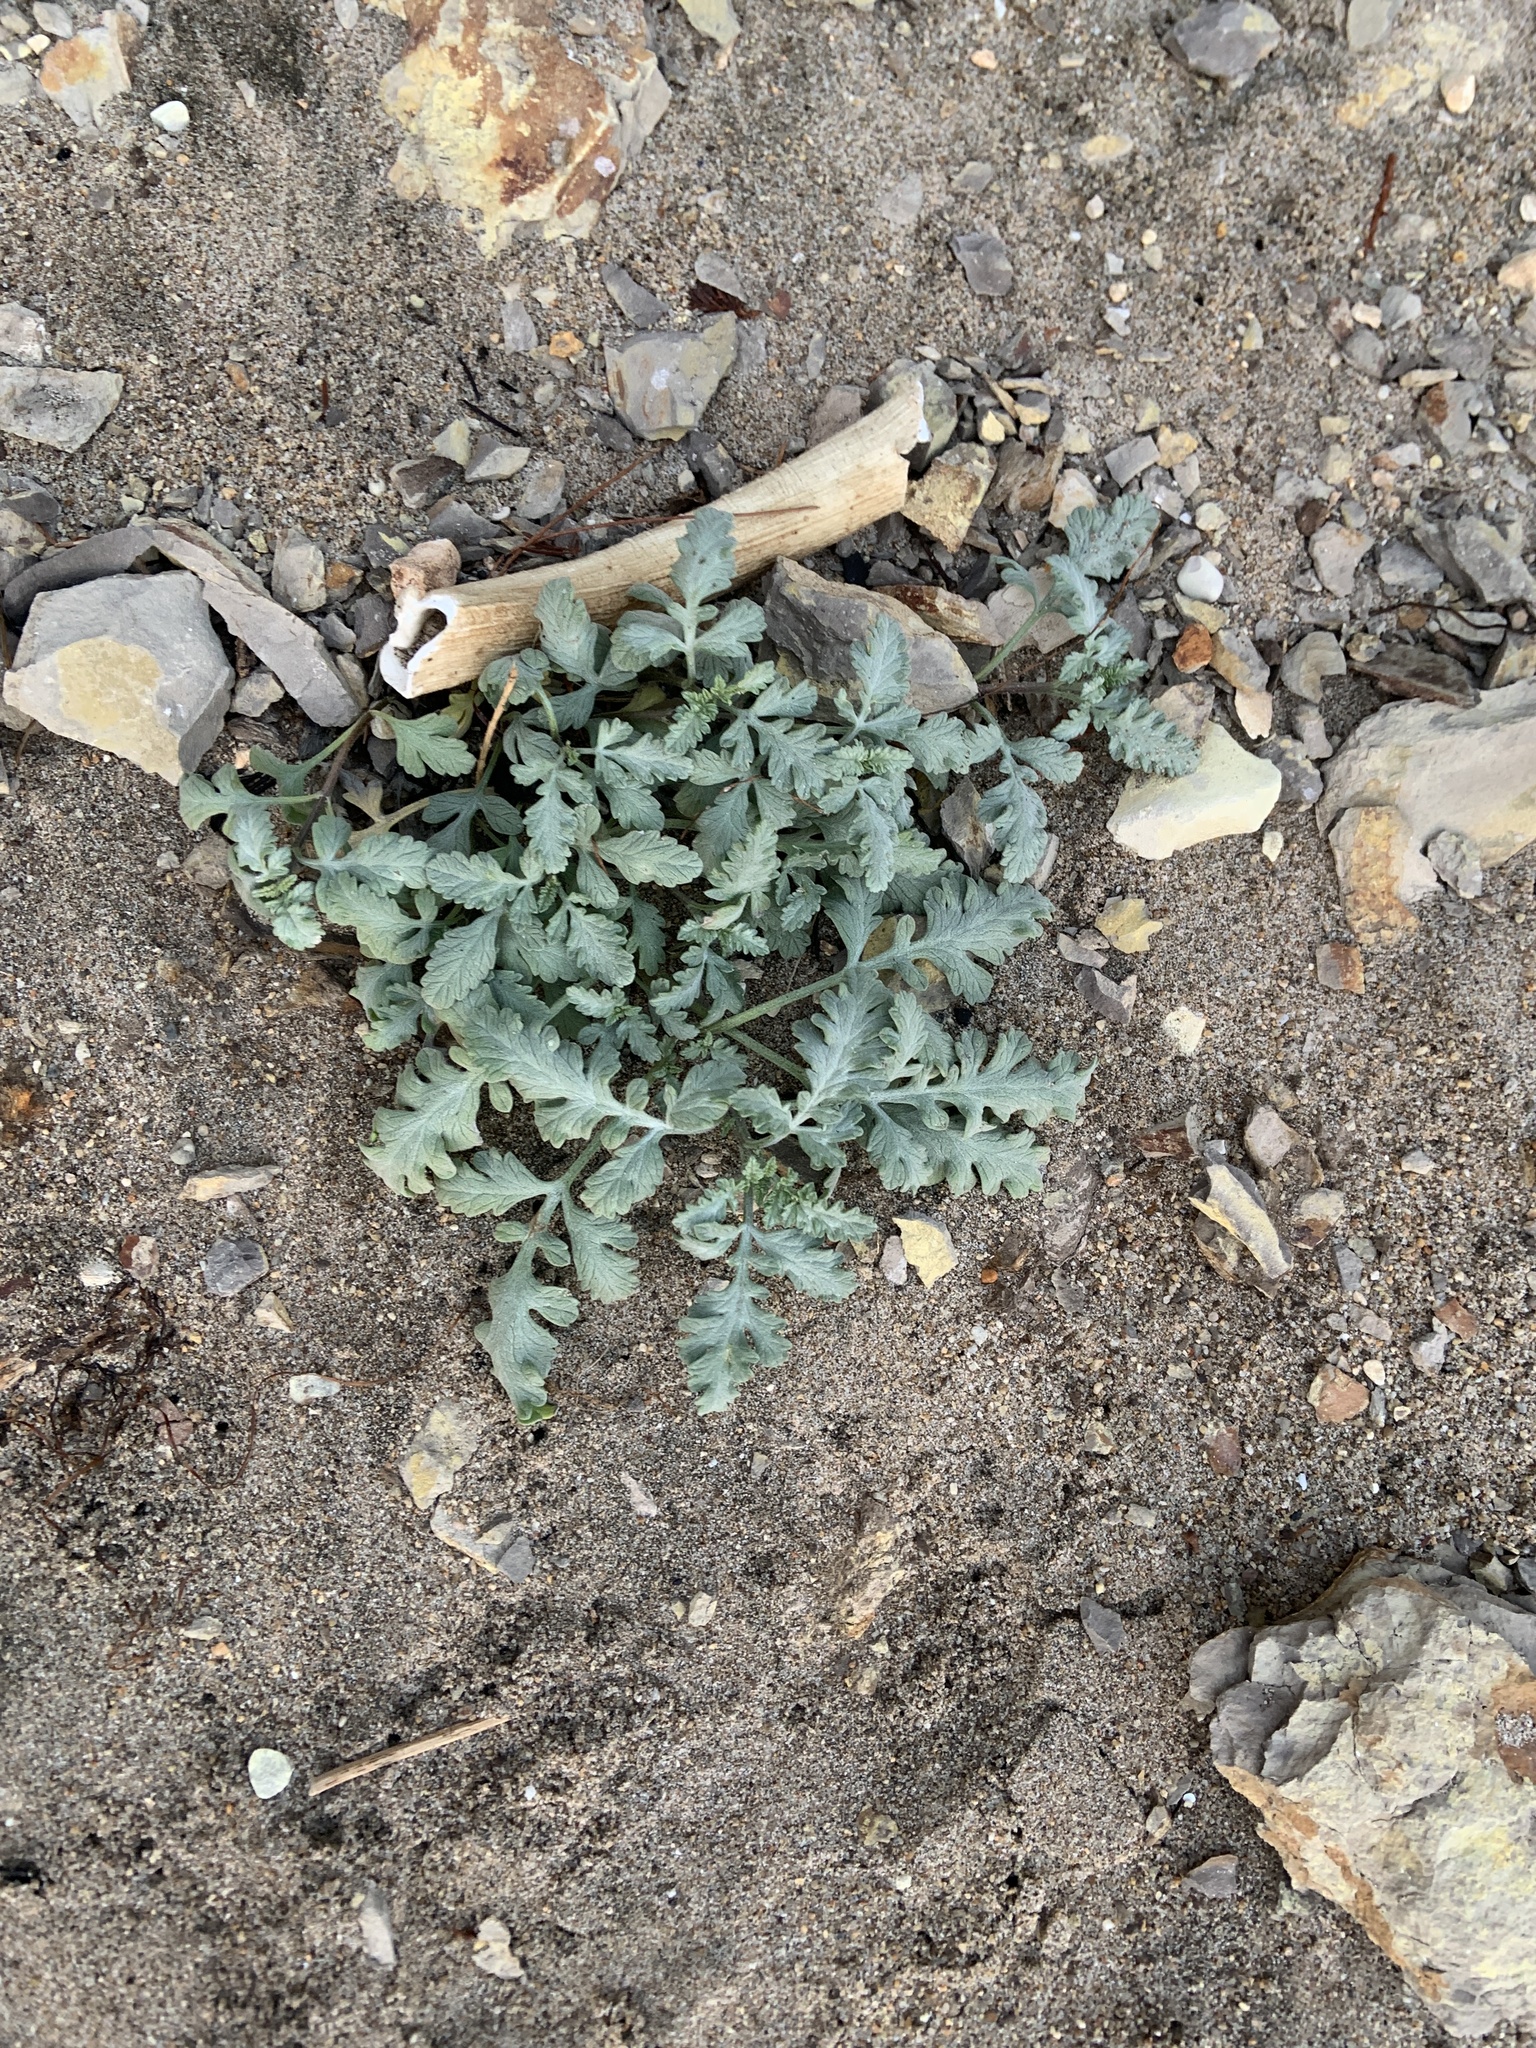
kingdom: Plantae
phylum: Tracheophyta
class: Magnoliopsida
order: Asterales
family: Asteraceae
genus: Ambrosia
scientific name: Ambrosia chamissonis
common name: Beachbur
